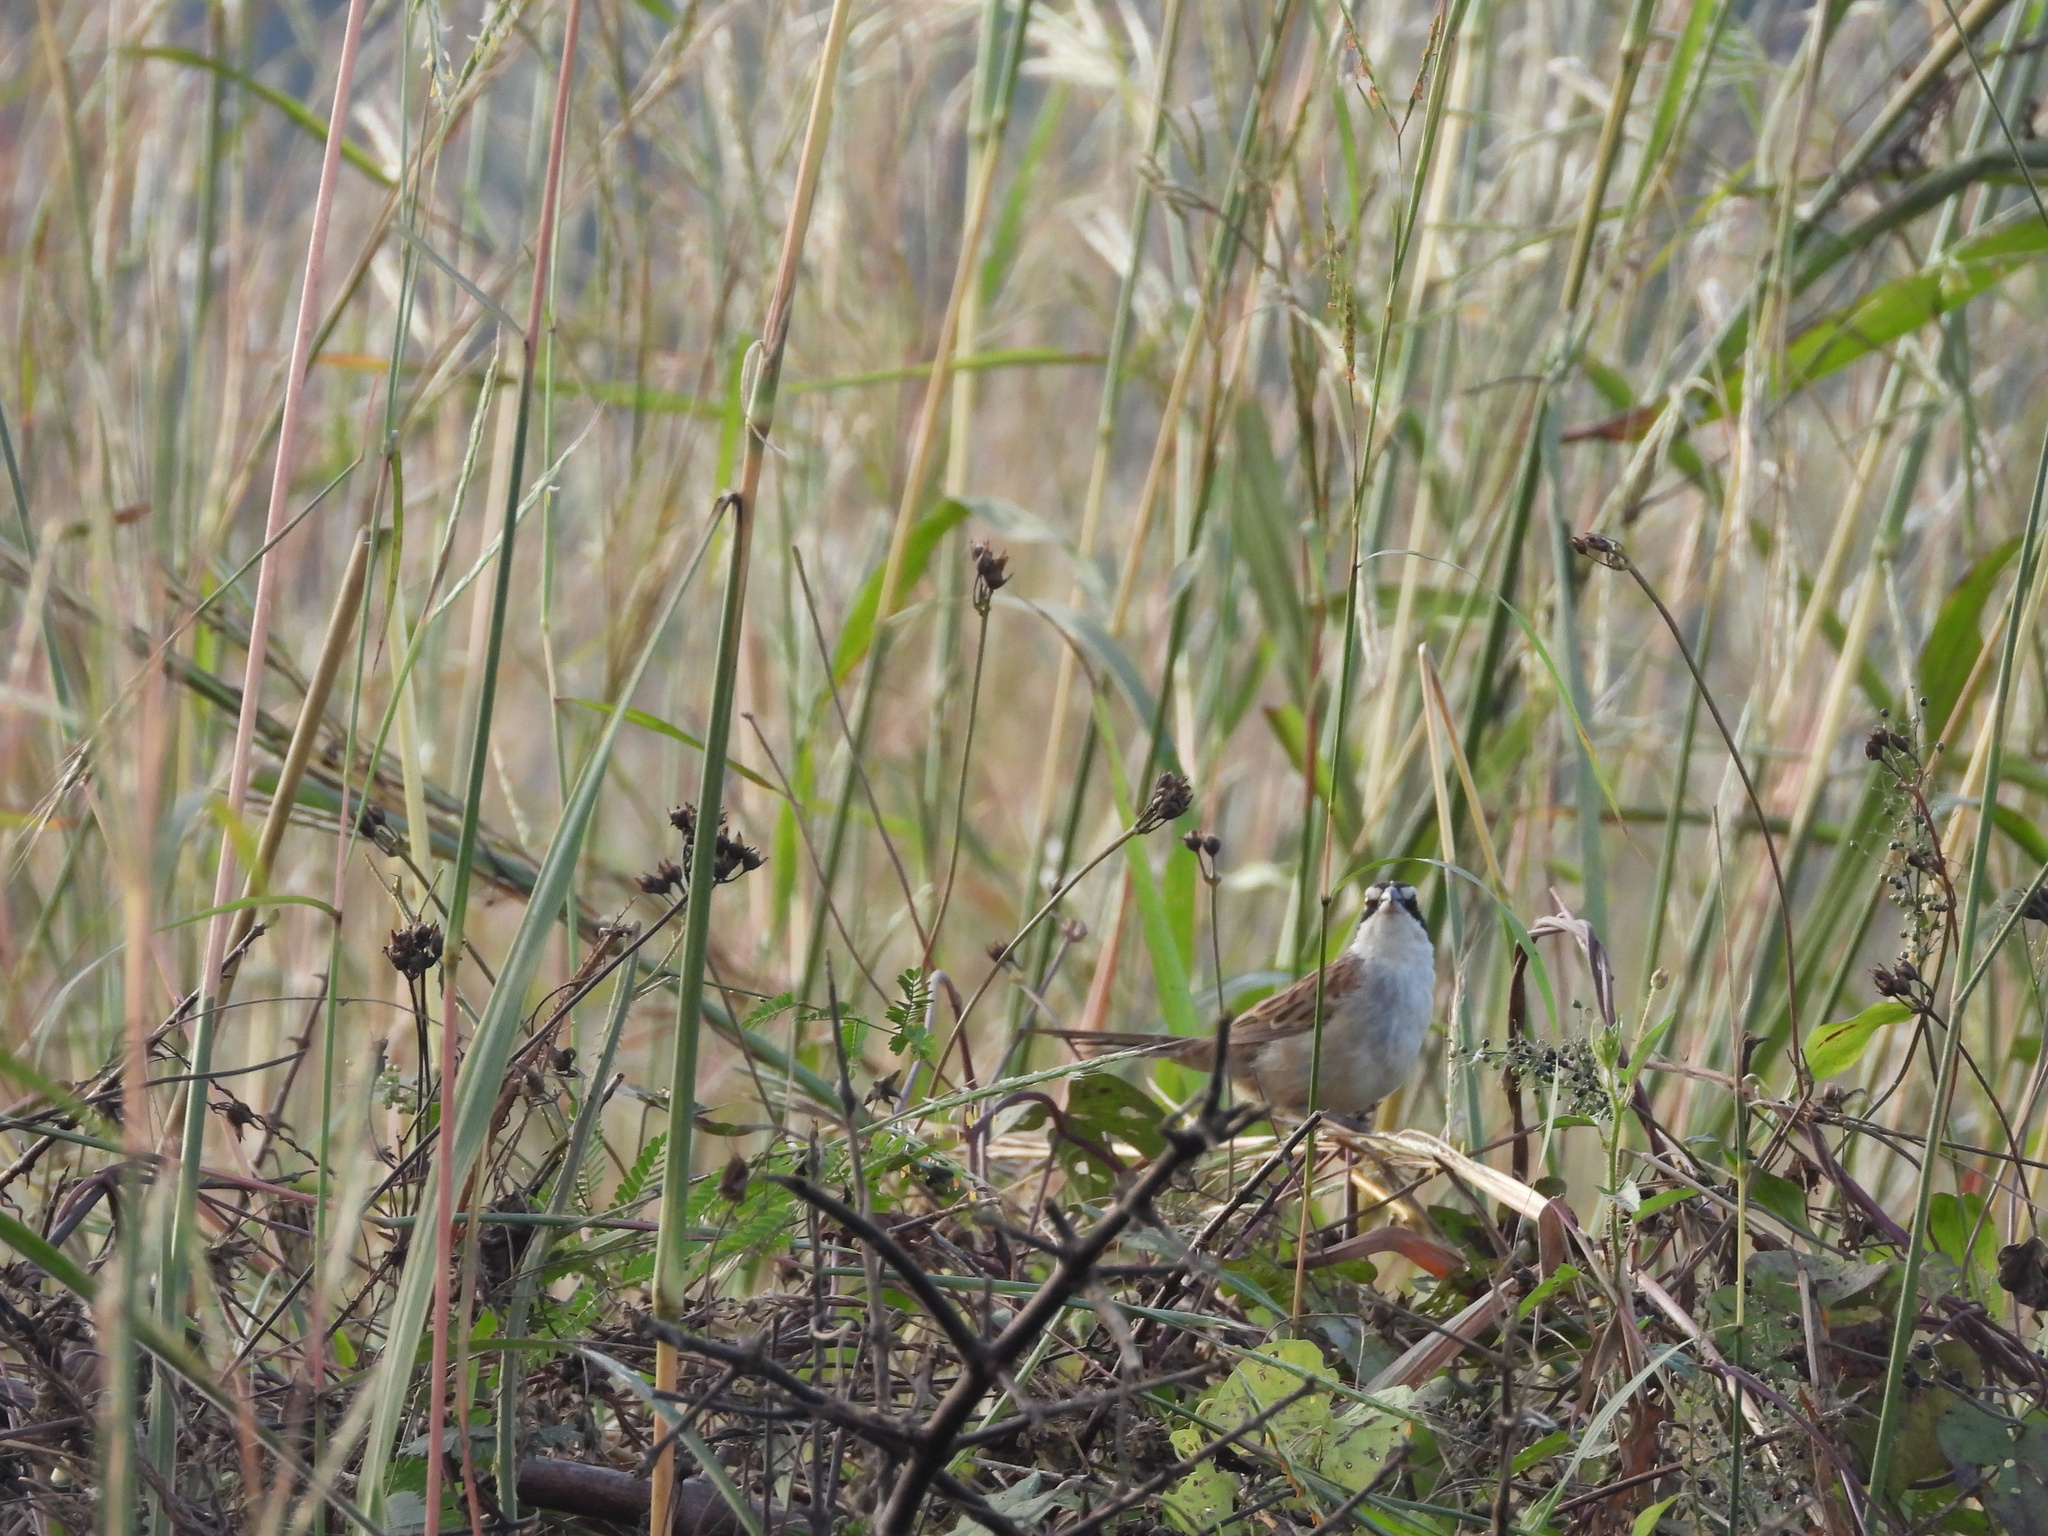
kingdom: Animalia
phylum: Chordata
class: Aves
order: Passeriformes
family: Passerellidae
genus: Peucaea
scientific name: Peucaea ruficauda
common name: Stripe-headed sparrow
